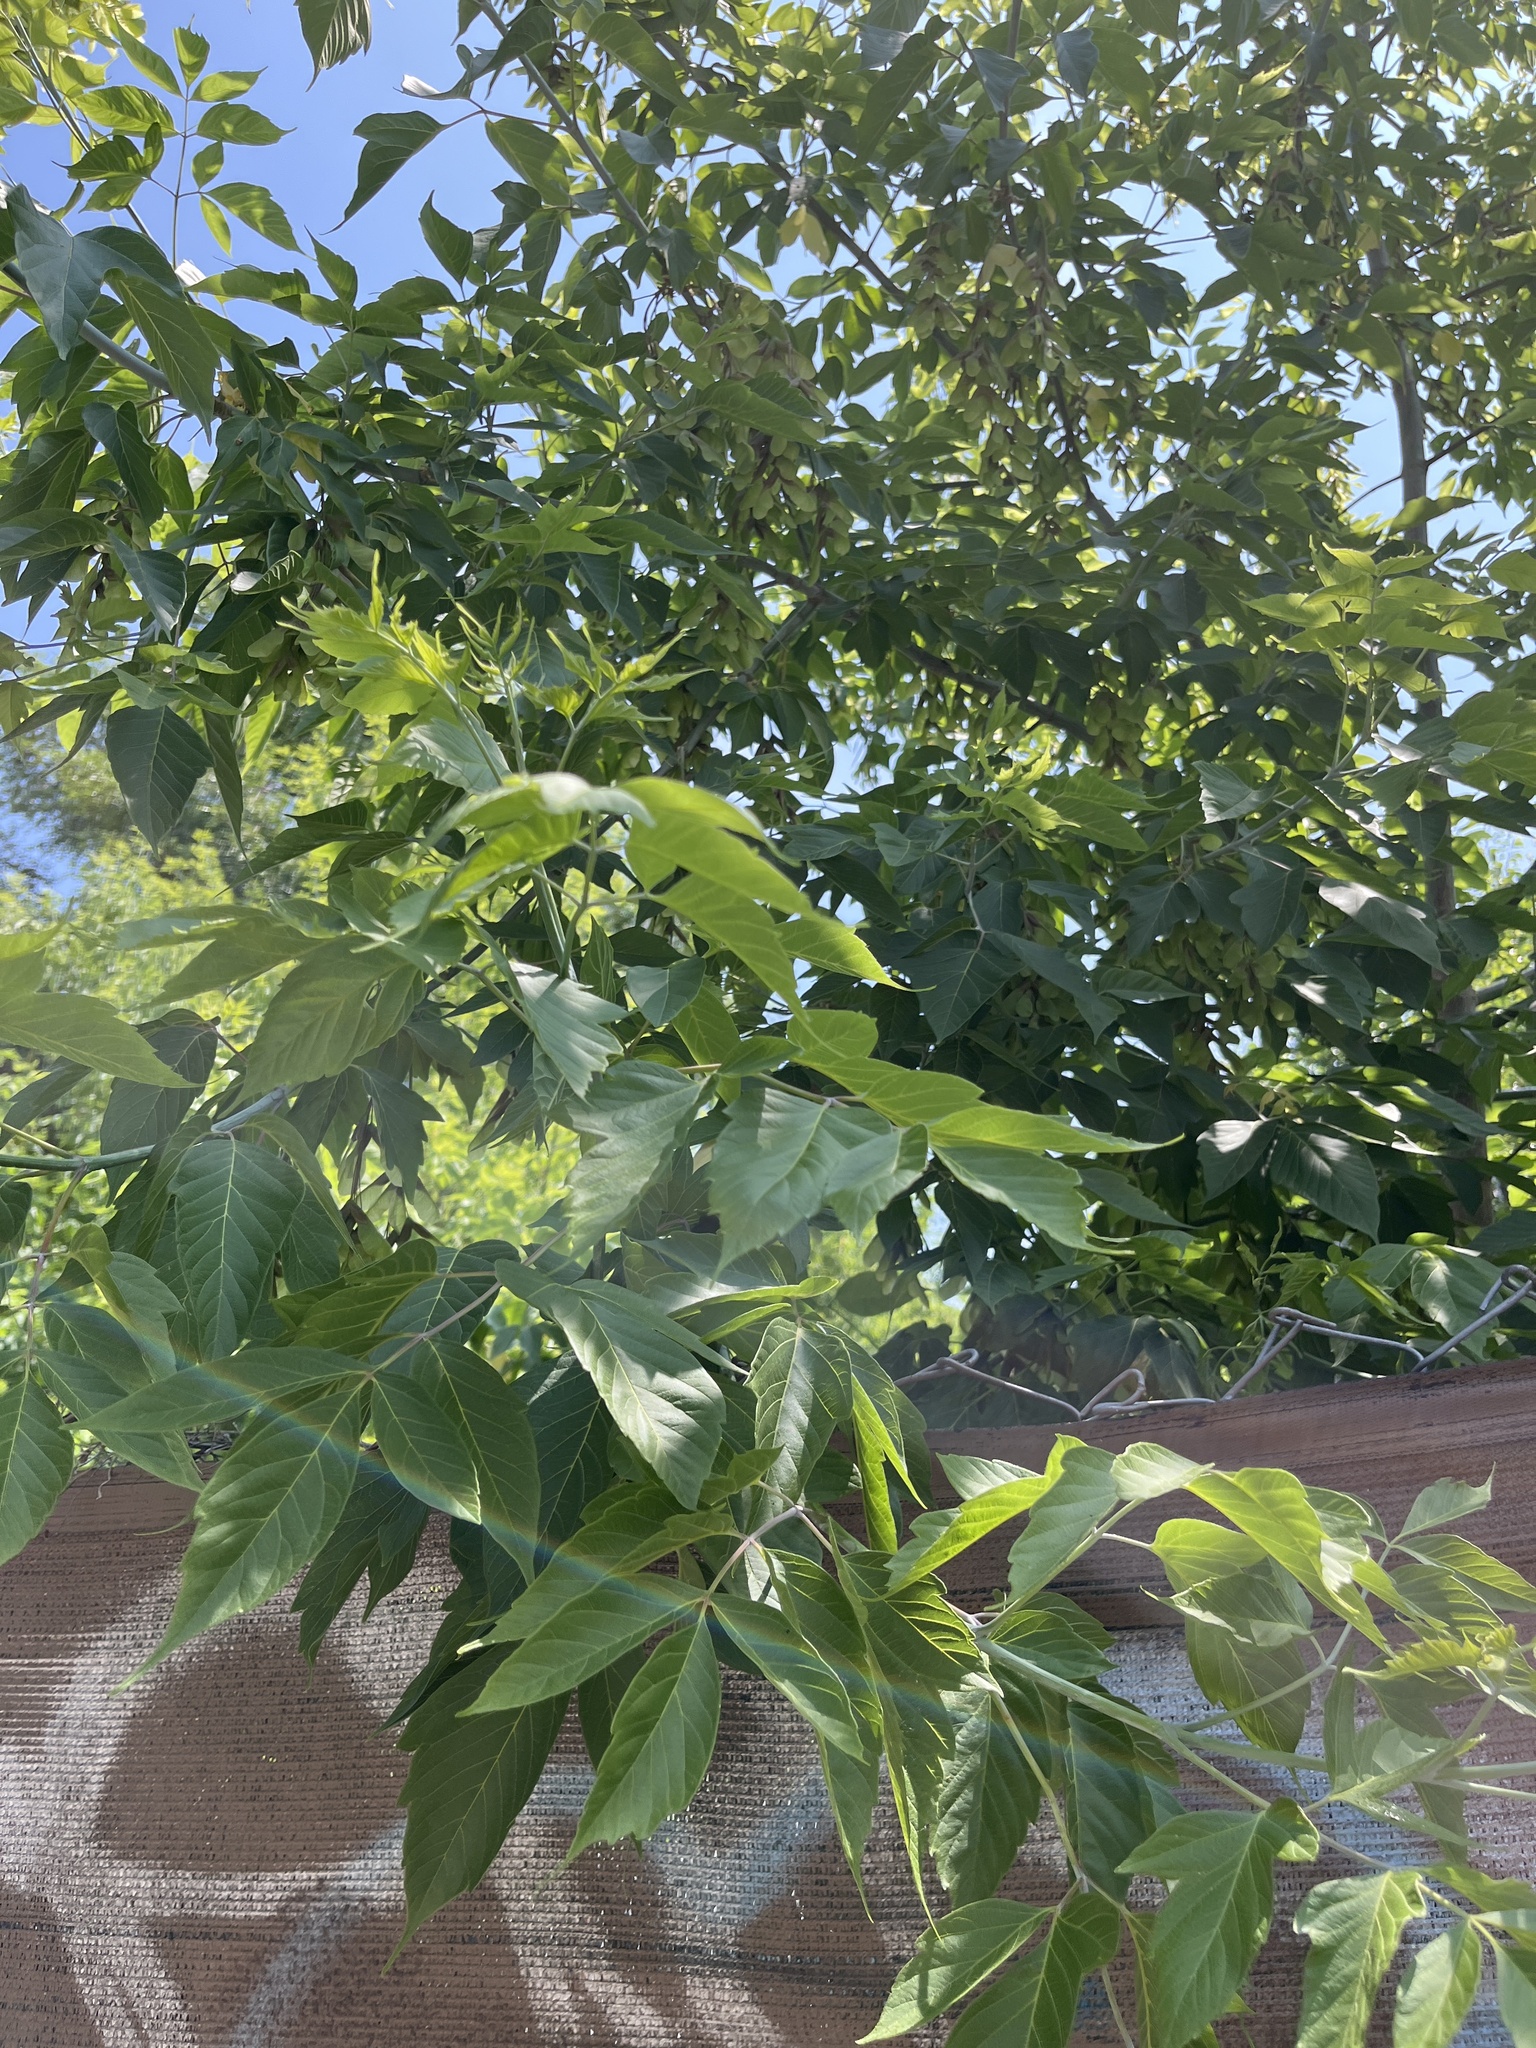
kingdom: Plantae
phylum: Tracheophyta
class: Magnoliopsida
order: Sapindales
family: Sapindaceae
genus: Acer
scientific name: Acer negundo
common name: Ashleaf maple
